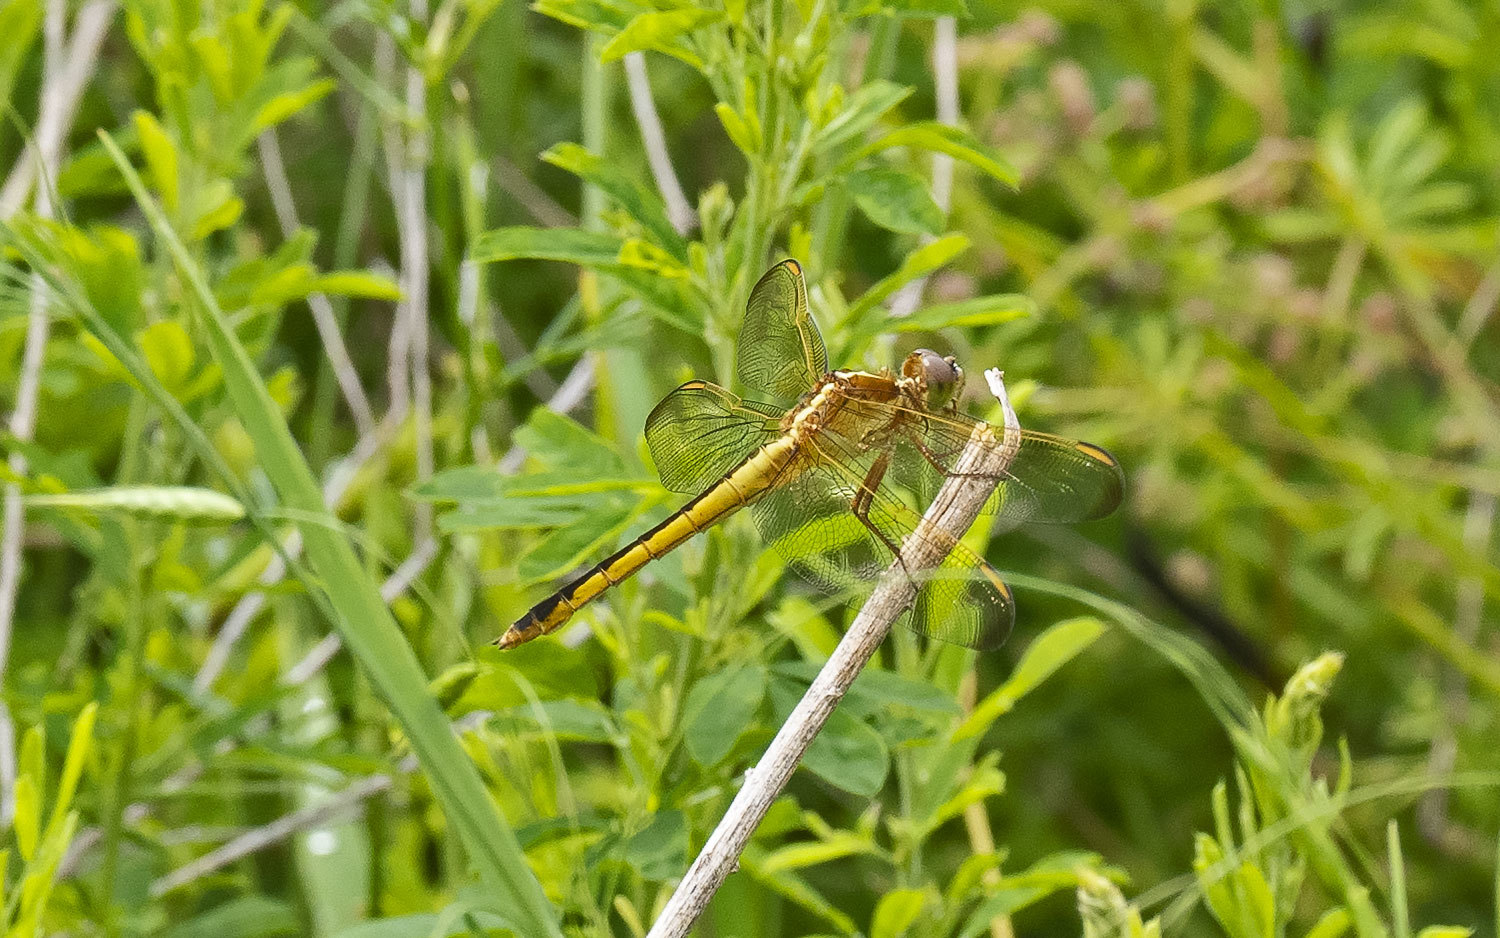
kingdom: Animalia
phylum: Arthropoda
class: Insecta
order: Odonata
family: Libellulidae
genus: Libellula
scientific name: Libellula needhami
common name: Needham's skimmer
